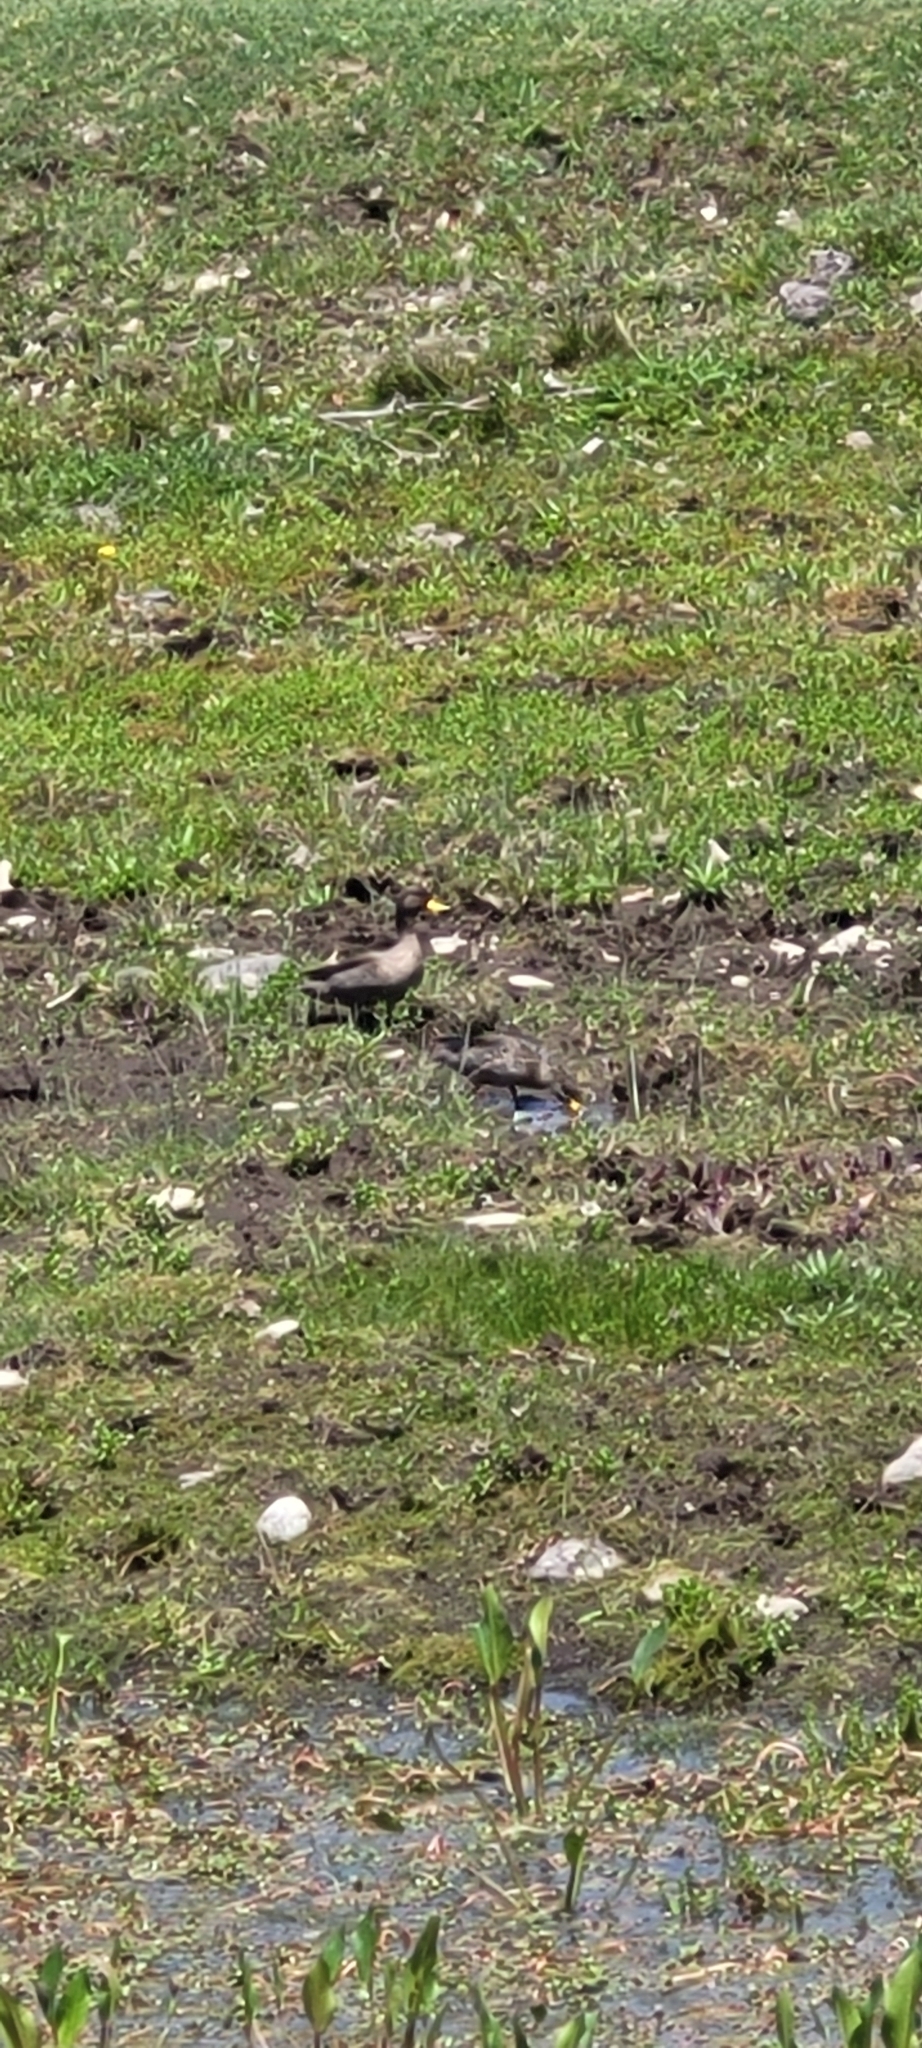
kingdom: Animalia
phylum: Chordata
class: Aves
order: Anseriformes
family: Anatidae
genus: Anas
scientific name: Anas flavirostris
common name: Yellow-billed teal
